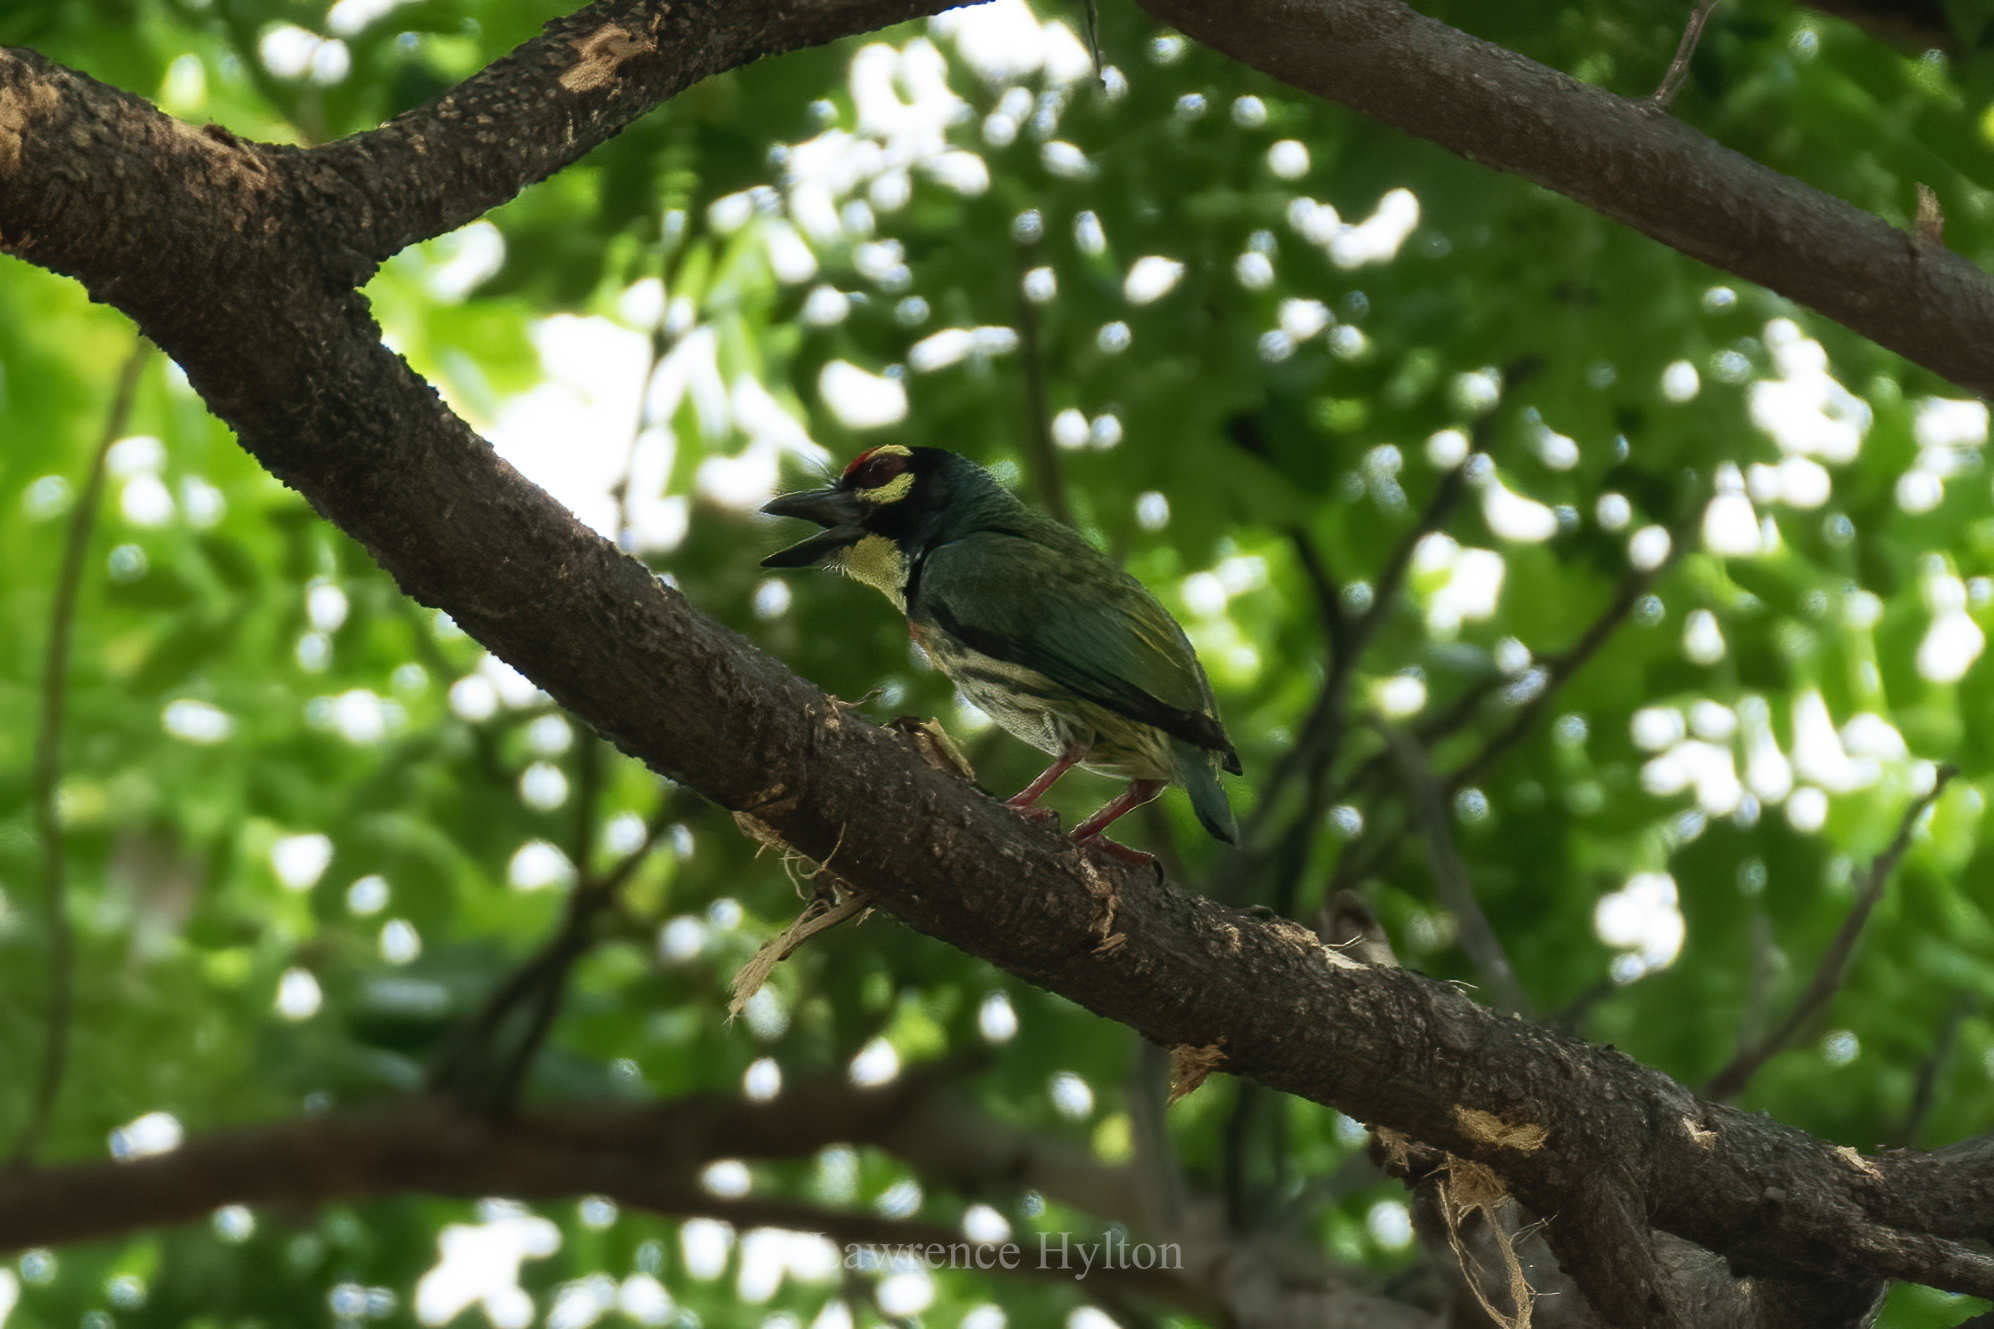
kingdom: Animalia
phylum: Chordata
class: Aves
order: Piciformes
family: Megalaimidae
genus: Psilopogon
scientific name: Psilopogon haemacephalus
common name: Coppersmith barbet
